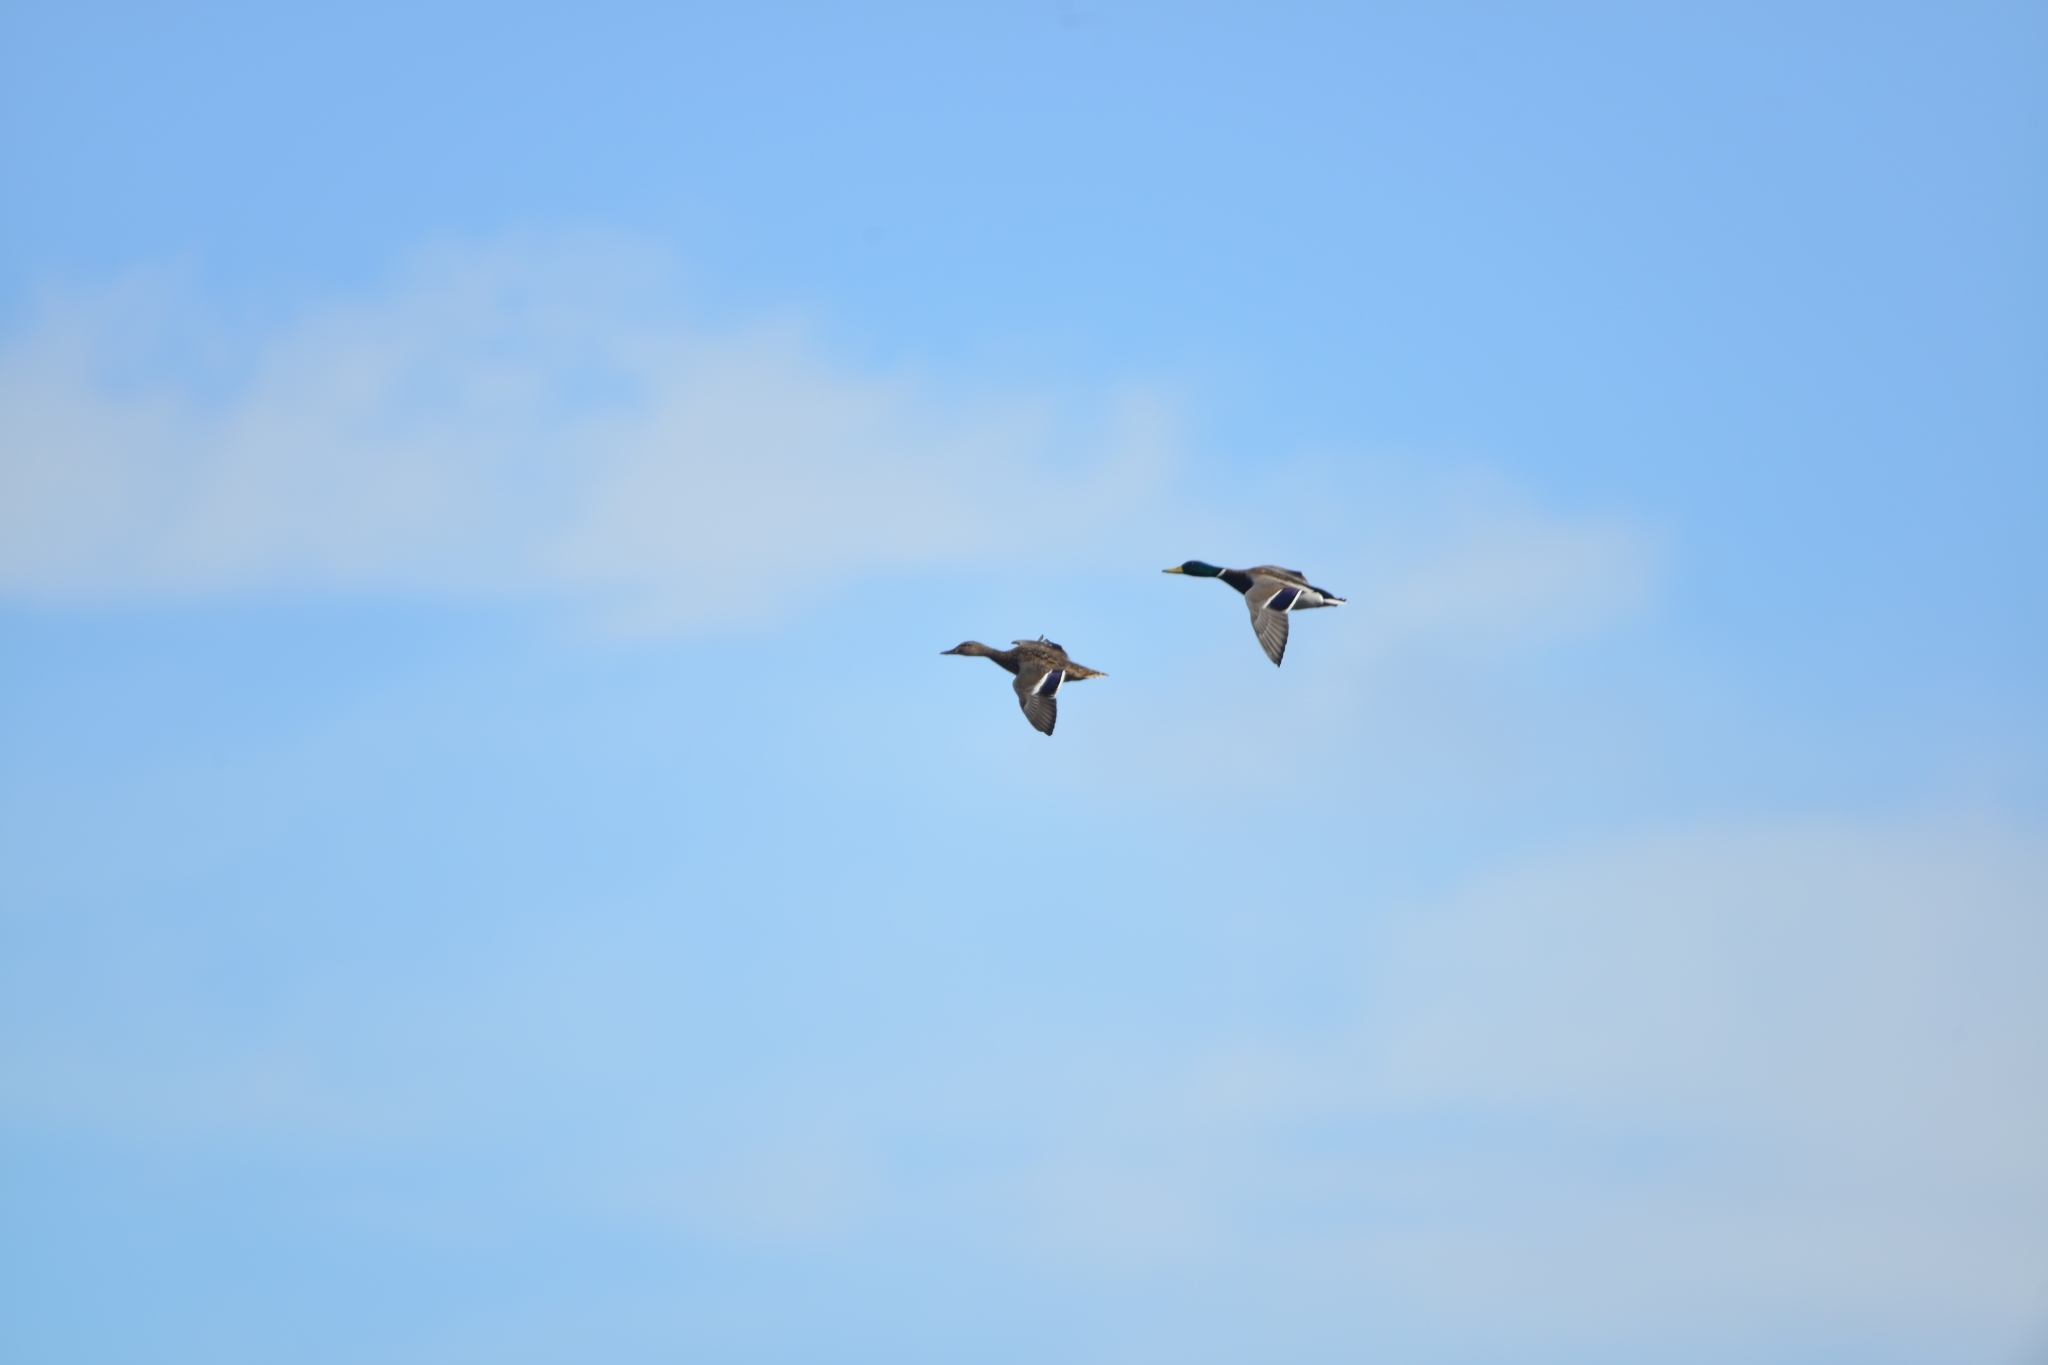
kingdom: Animalia
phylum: Chordata
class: Aves
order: Anseriformes
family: Anatidae
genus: Anas
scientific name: Anas platyrhynchos
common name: Mallard
